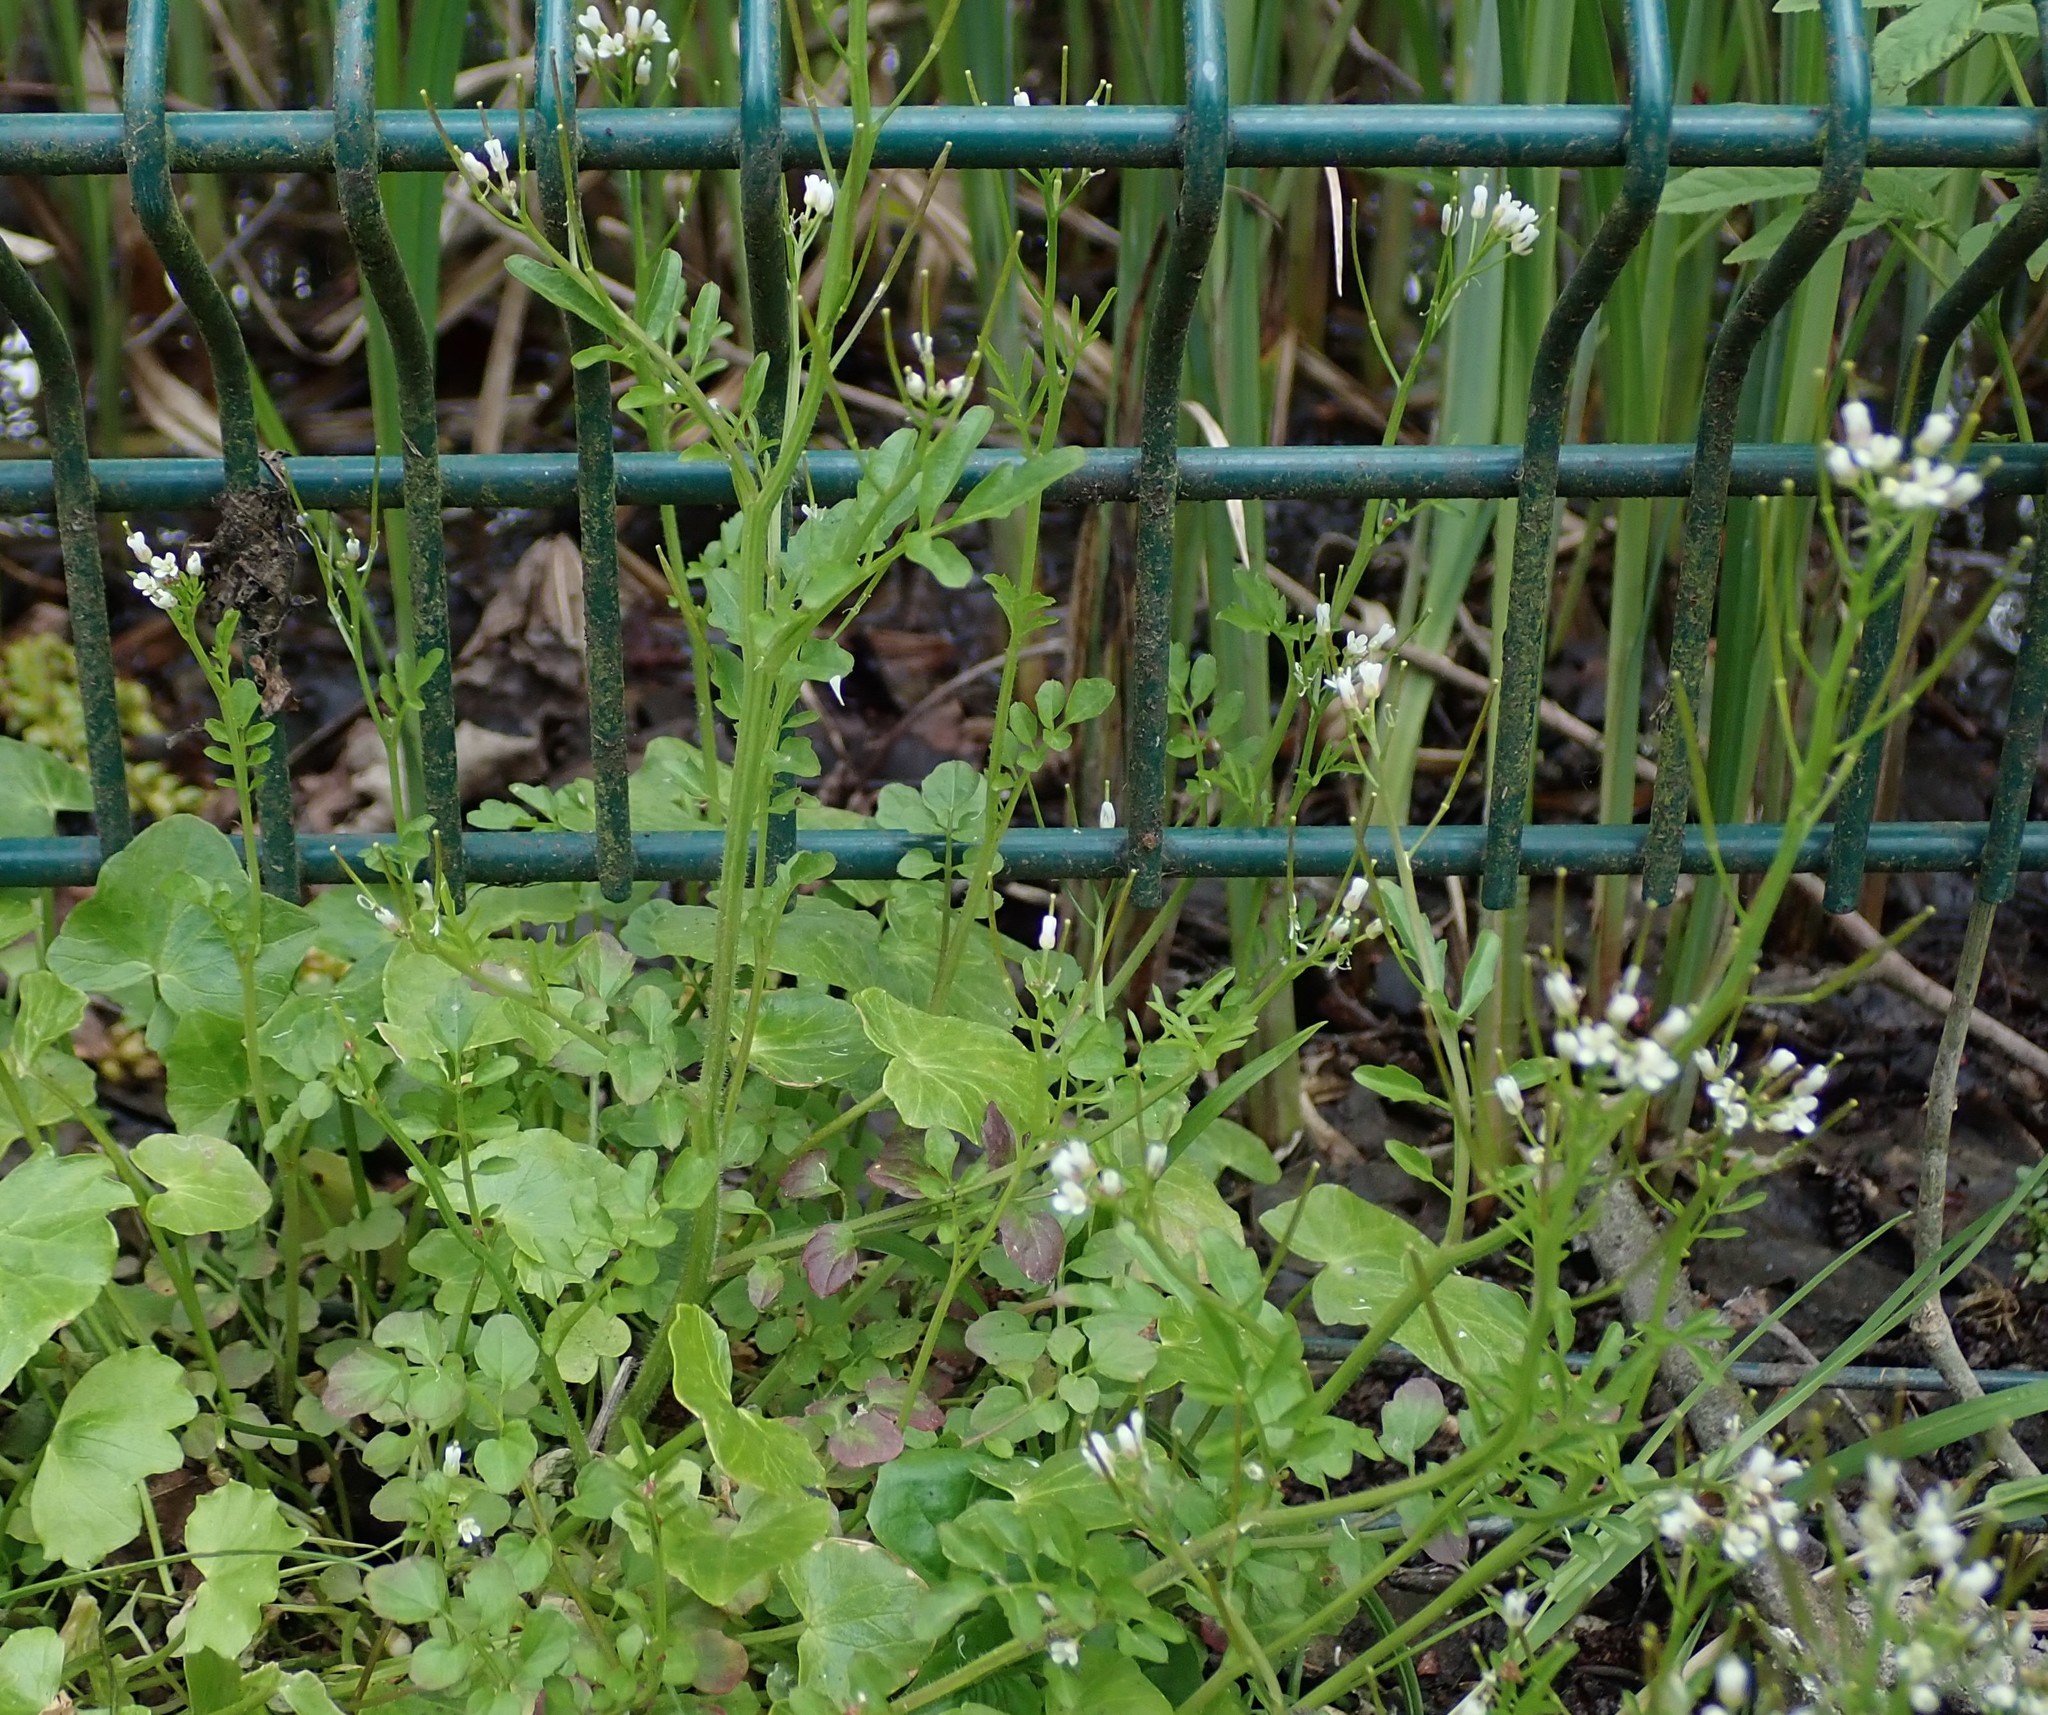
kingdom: Plantae
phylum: Tracheophyta
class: Magnoliopsida
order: Brassicales
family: Brassicaceae
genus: Cardamine
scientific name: Cardamine flexuosa
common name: Woodland bittercress
